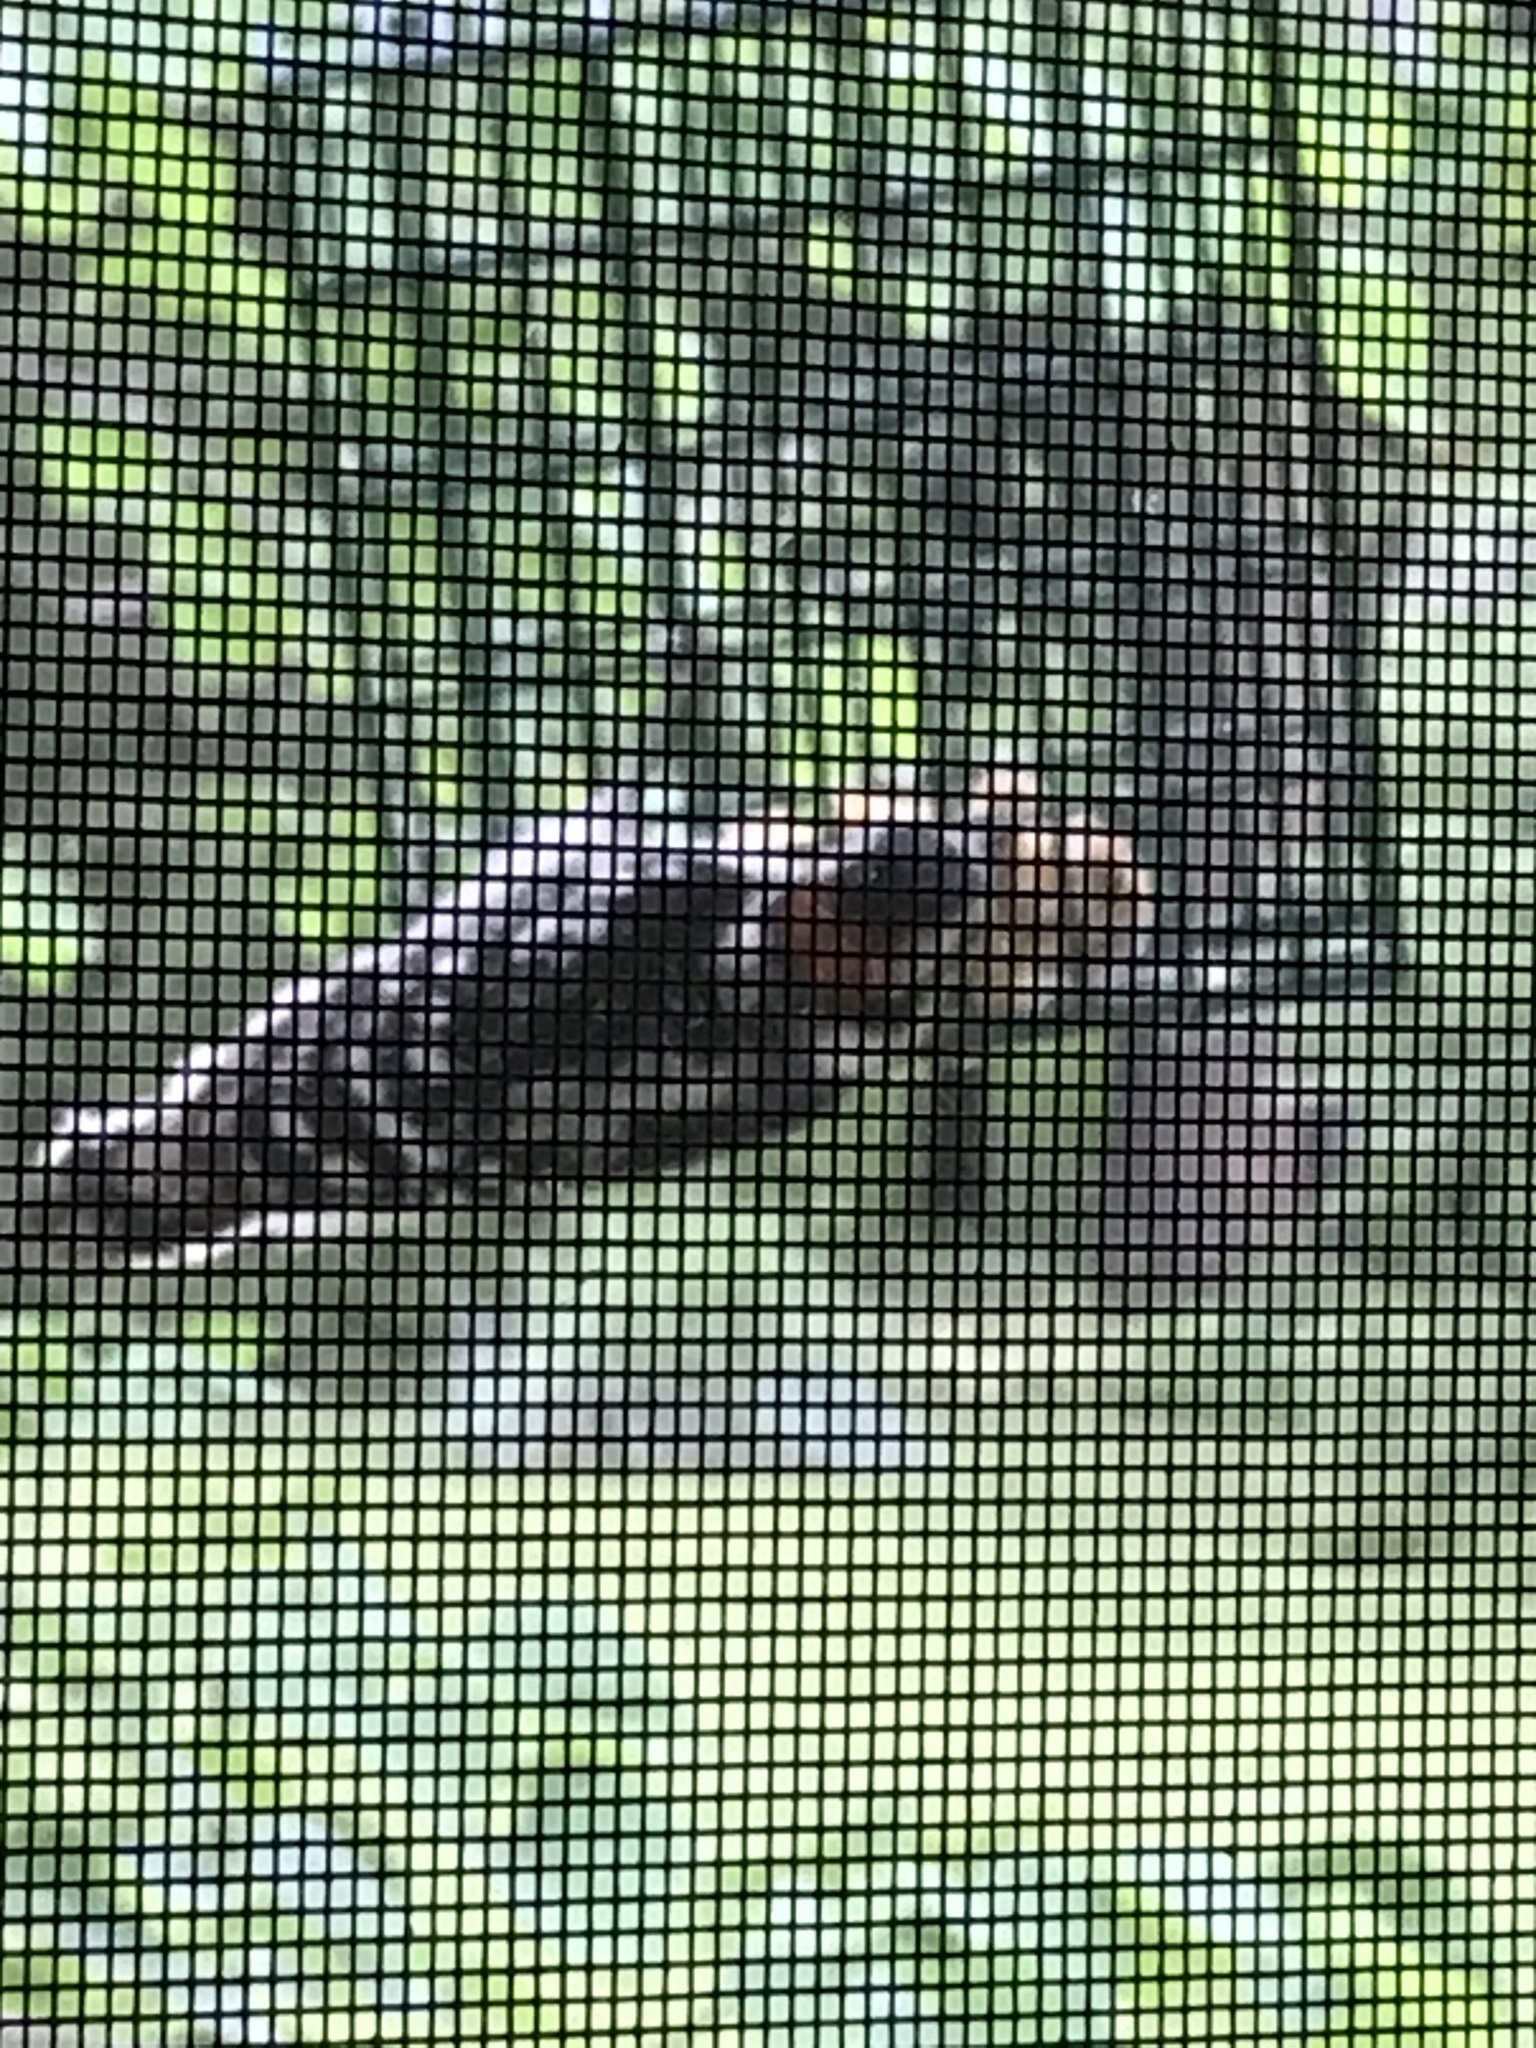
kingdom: Animalia
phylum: Chordata
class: Aves
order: Piciformes
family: Picidae
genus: Dryobates
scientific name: Dryobates pubescens
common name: Downy woodpecker
